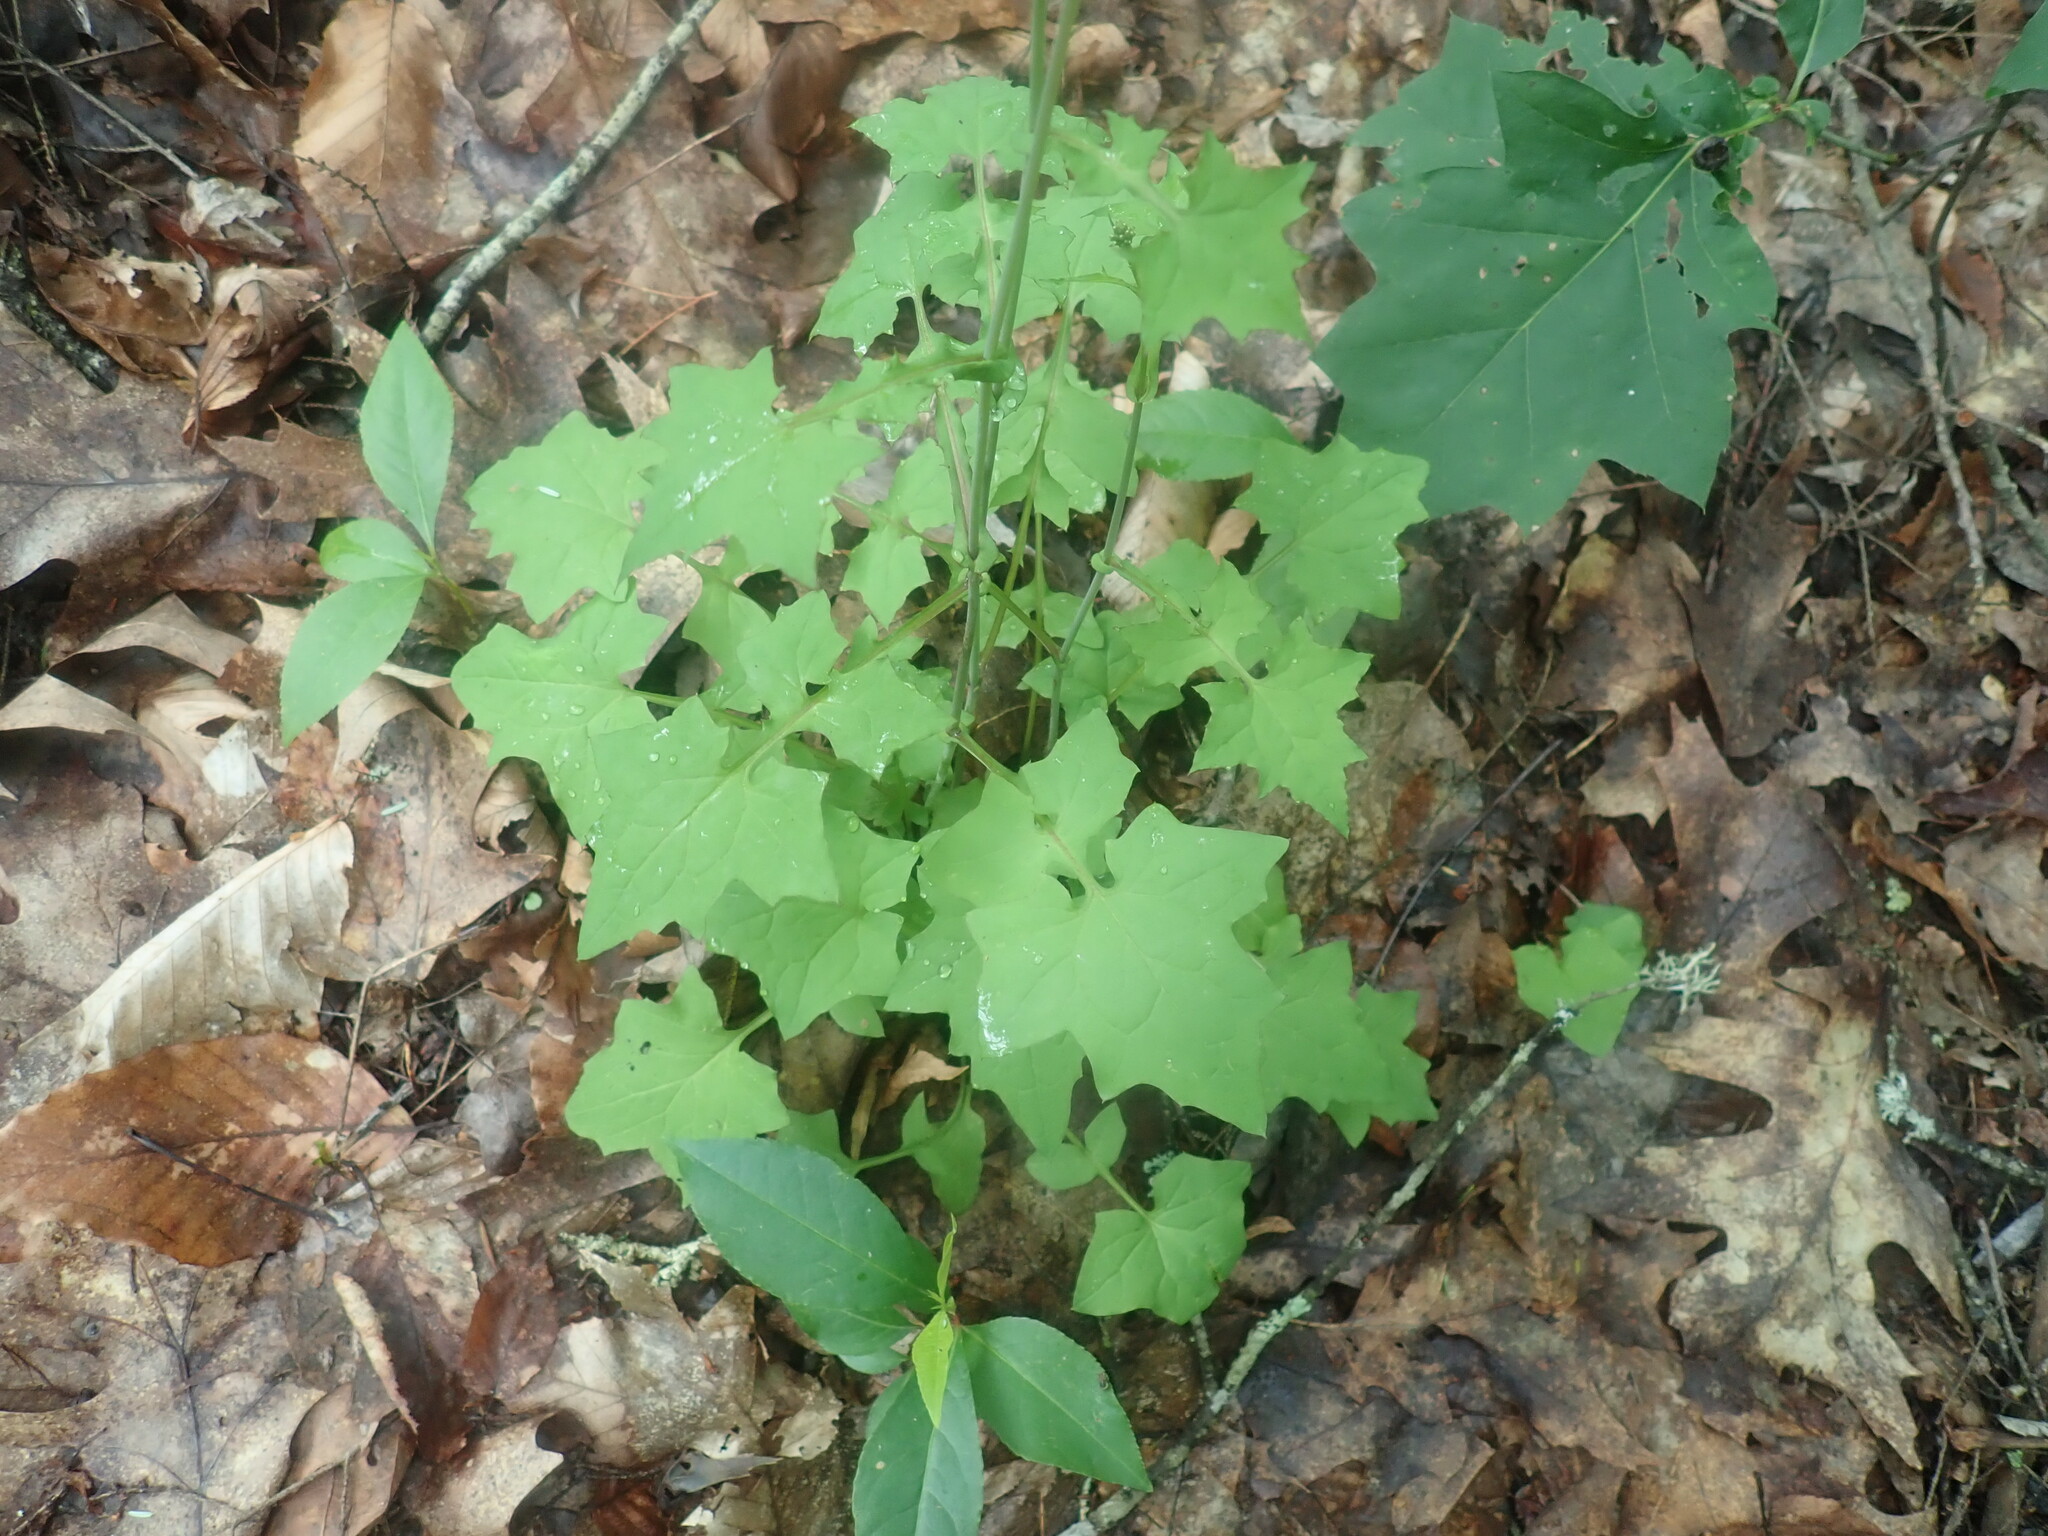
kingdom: Plantae
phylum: Tracheophyta
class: Magnoliopsida
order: Asterales
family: Asteraceae
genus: Mycelis
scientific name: Mycelis muralis
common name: Wall lettuce
